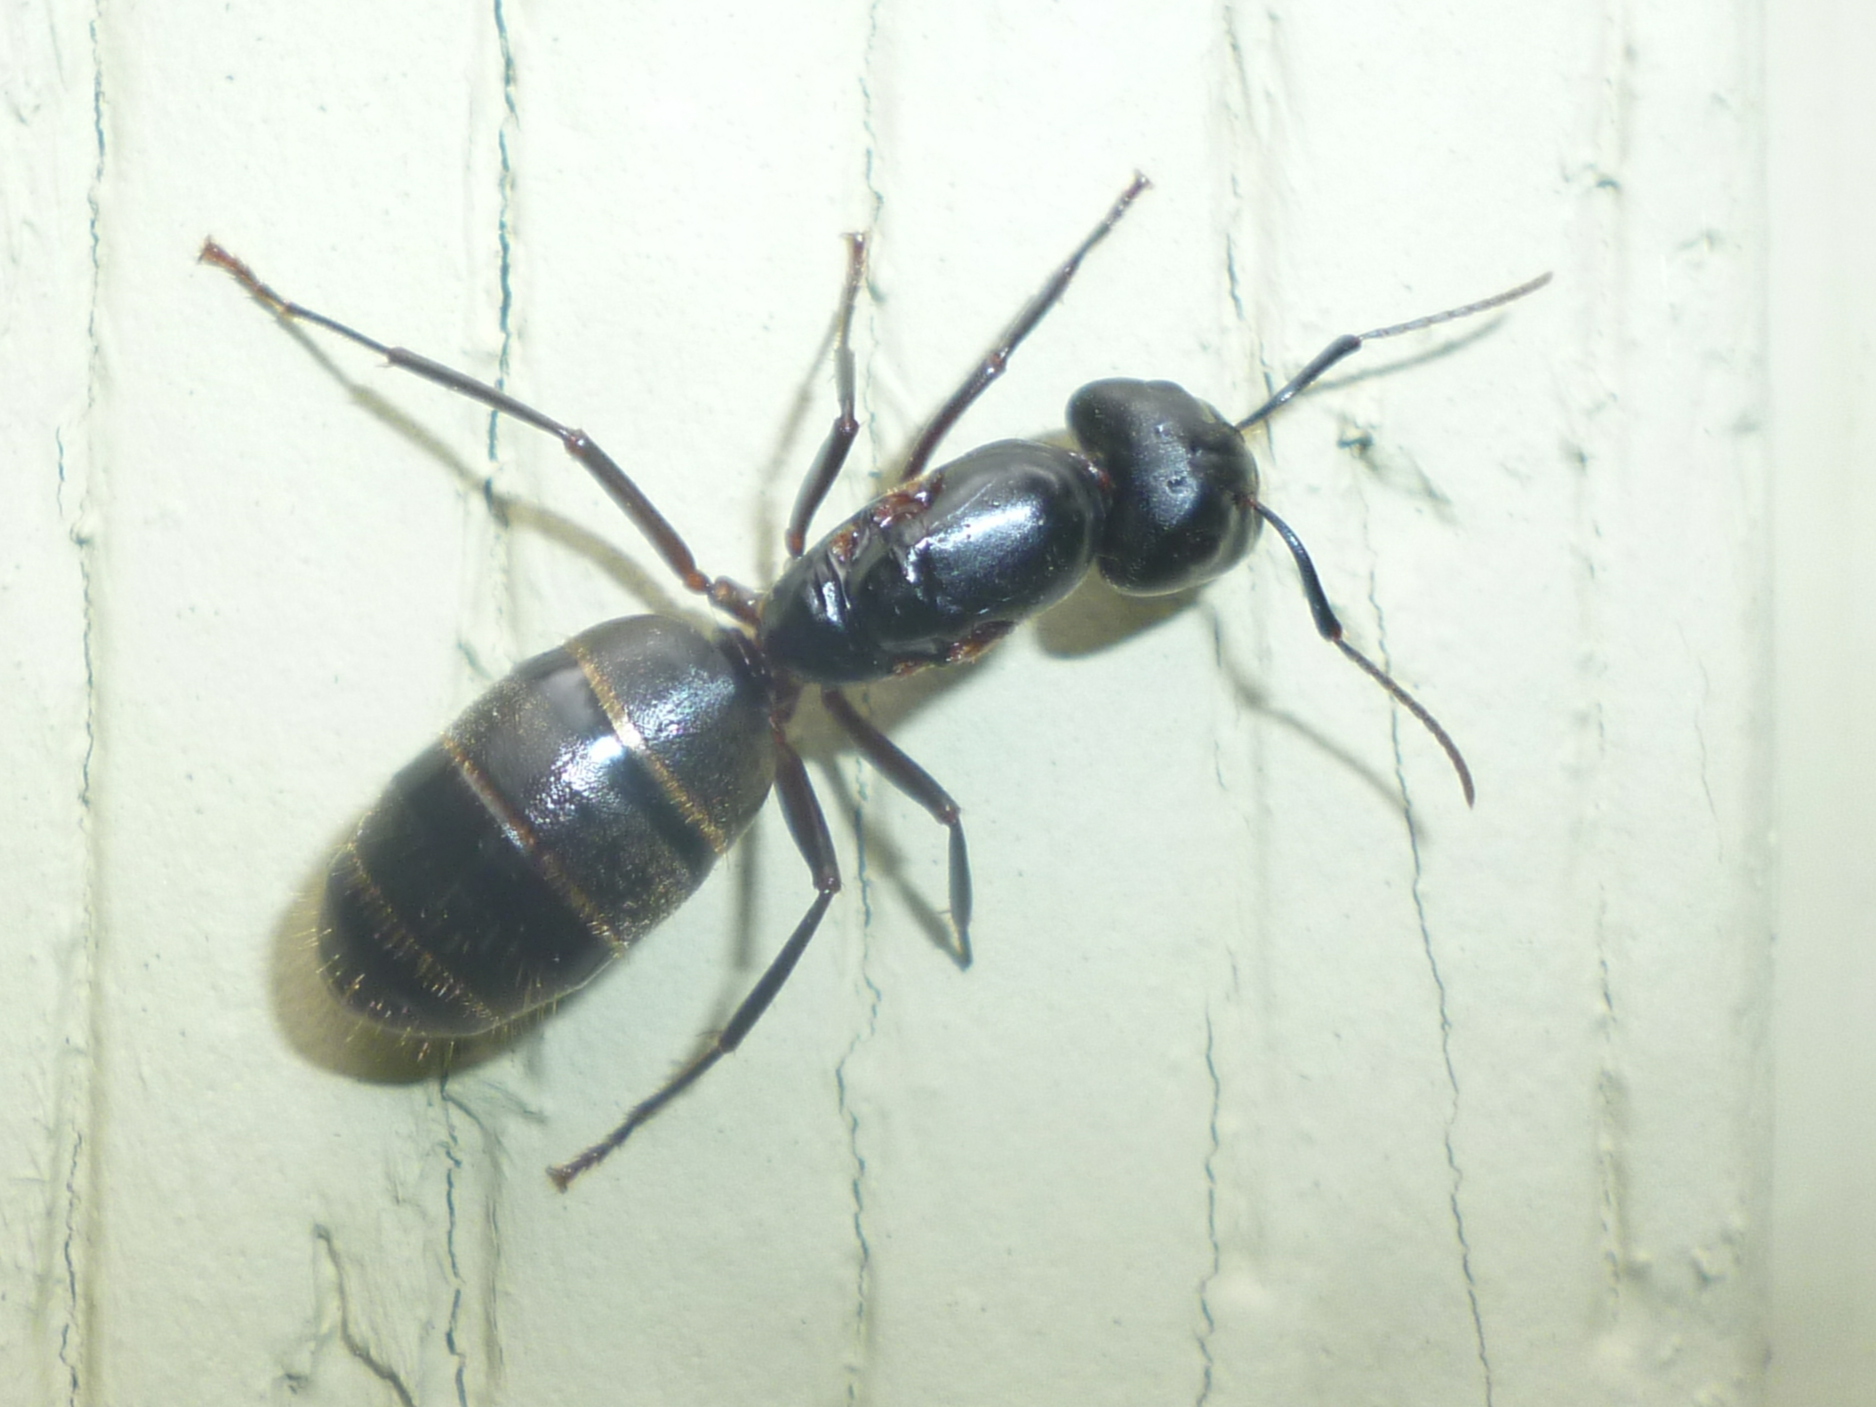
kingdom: Animalia
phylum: Arthropoda
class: Insecta
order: Hymenoptera
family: Formicidae
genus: Camponotus
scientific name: Camponotus pennsylvanicus
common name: Black carpenter ant
